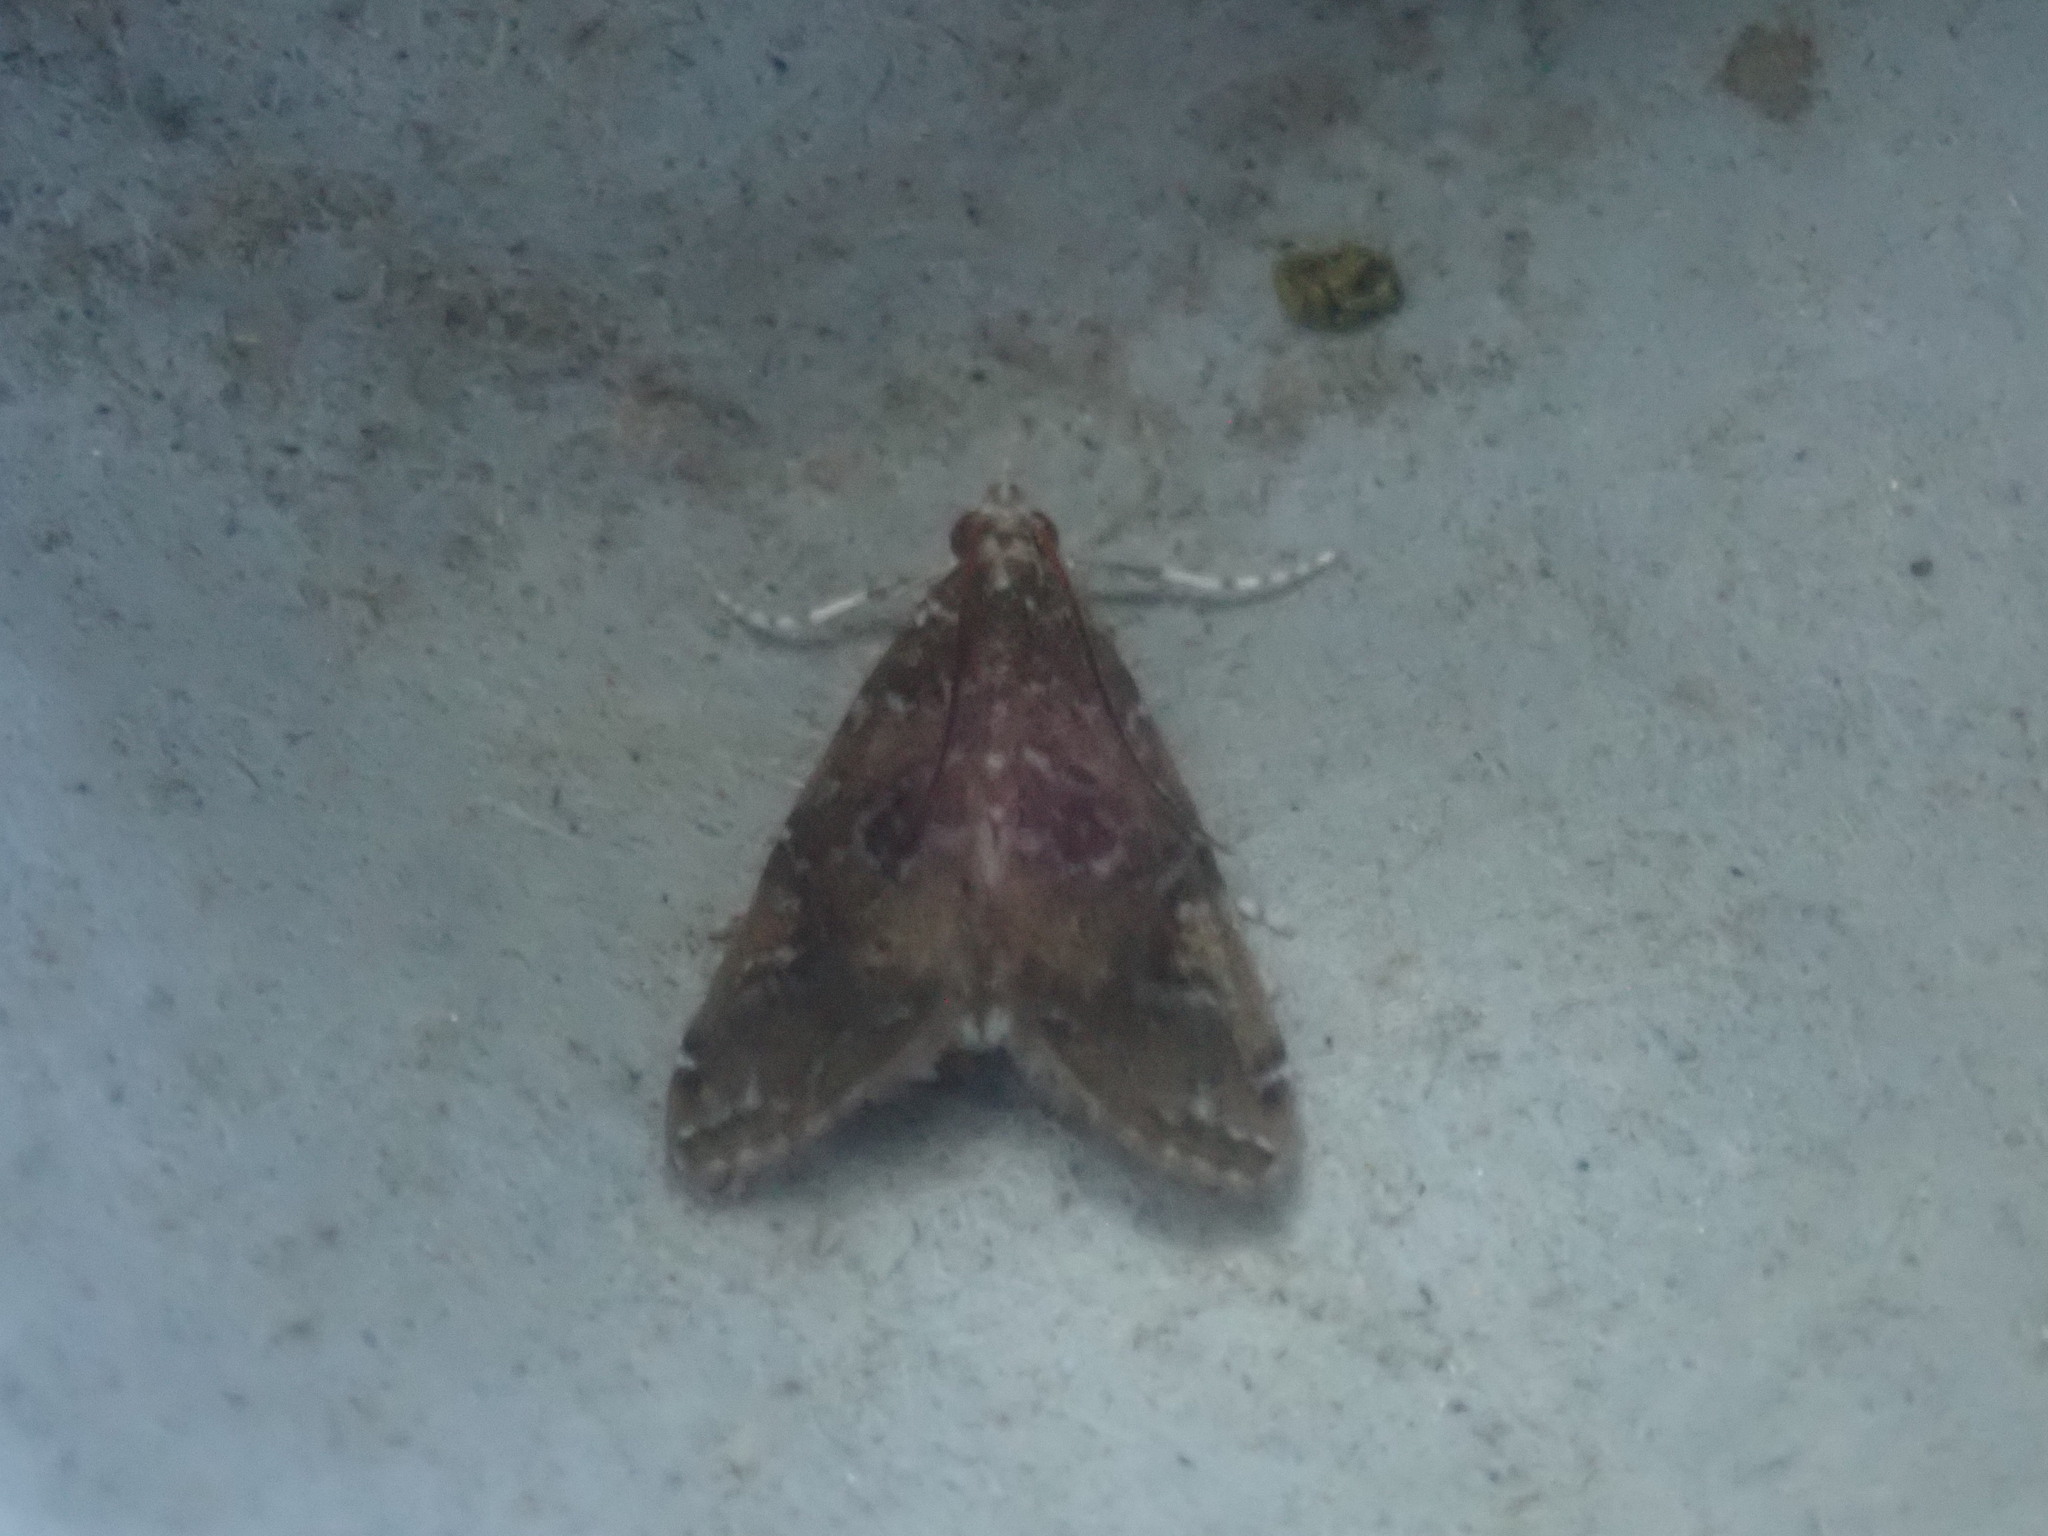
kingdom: Animalia
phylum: Arthropoda
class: Insecta
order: Lepidoptera
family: Crambidae
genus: Elophila
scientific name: Elophila gyralis
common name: Waterlily borer moth
